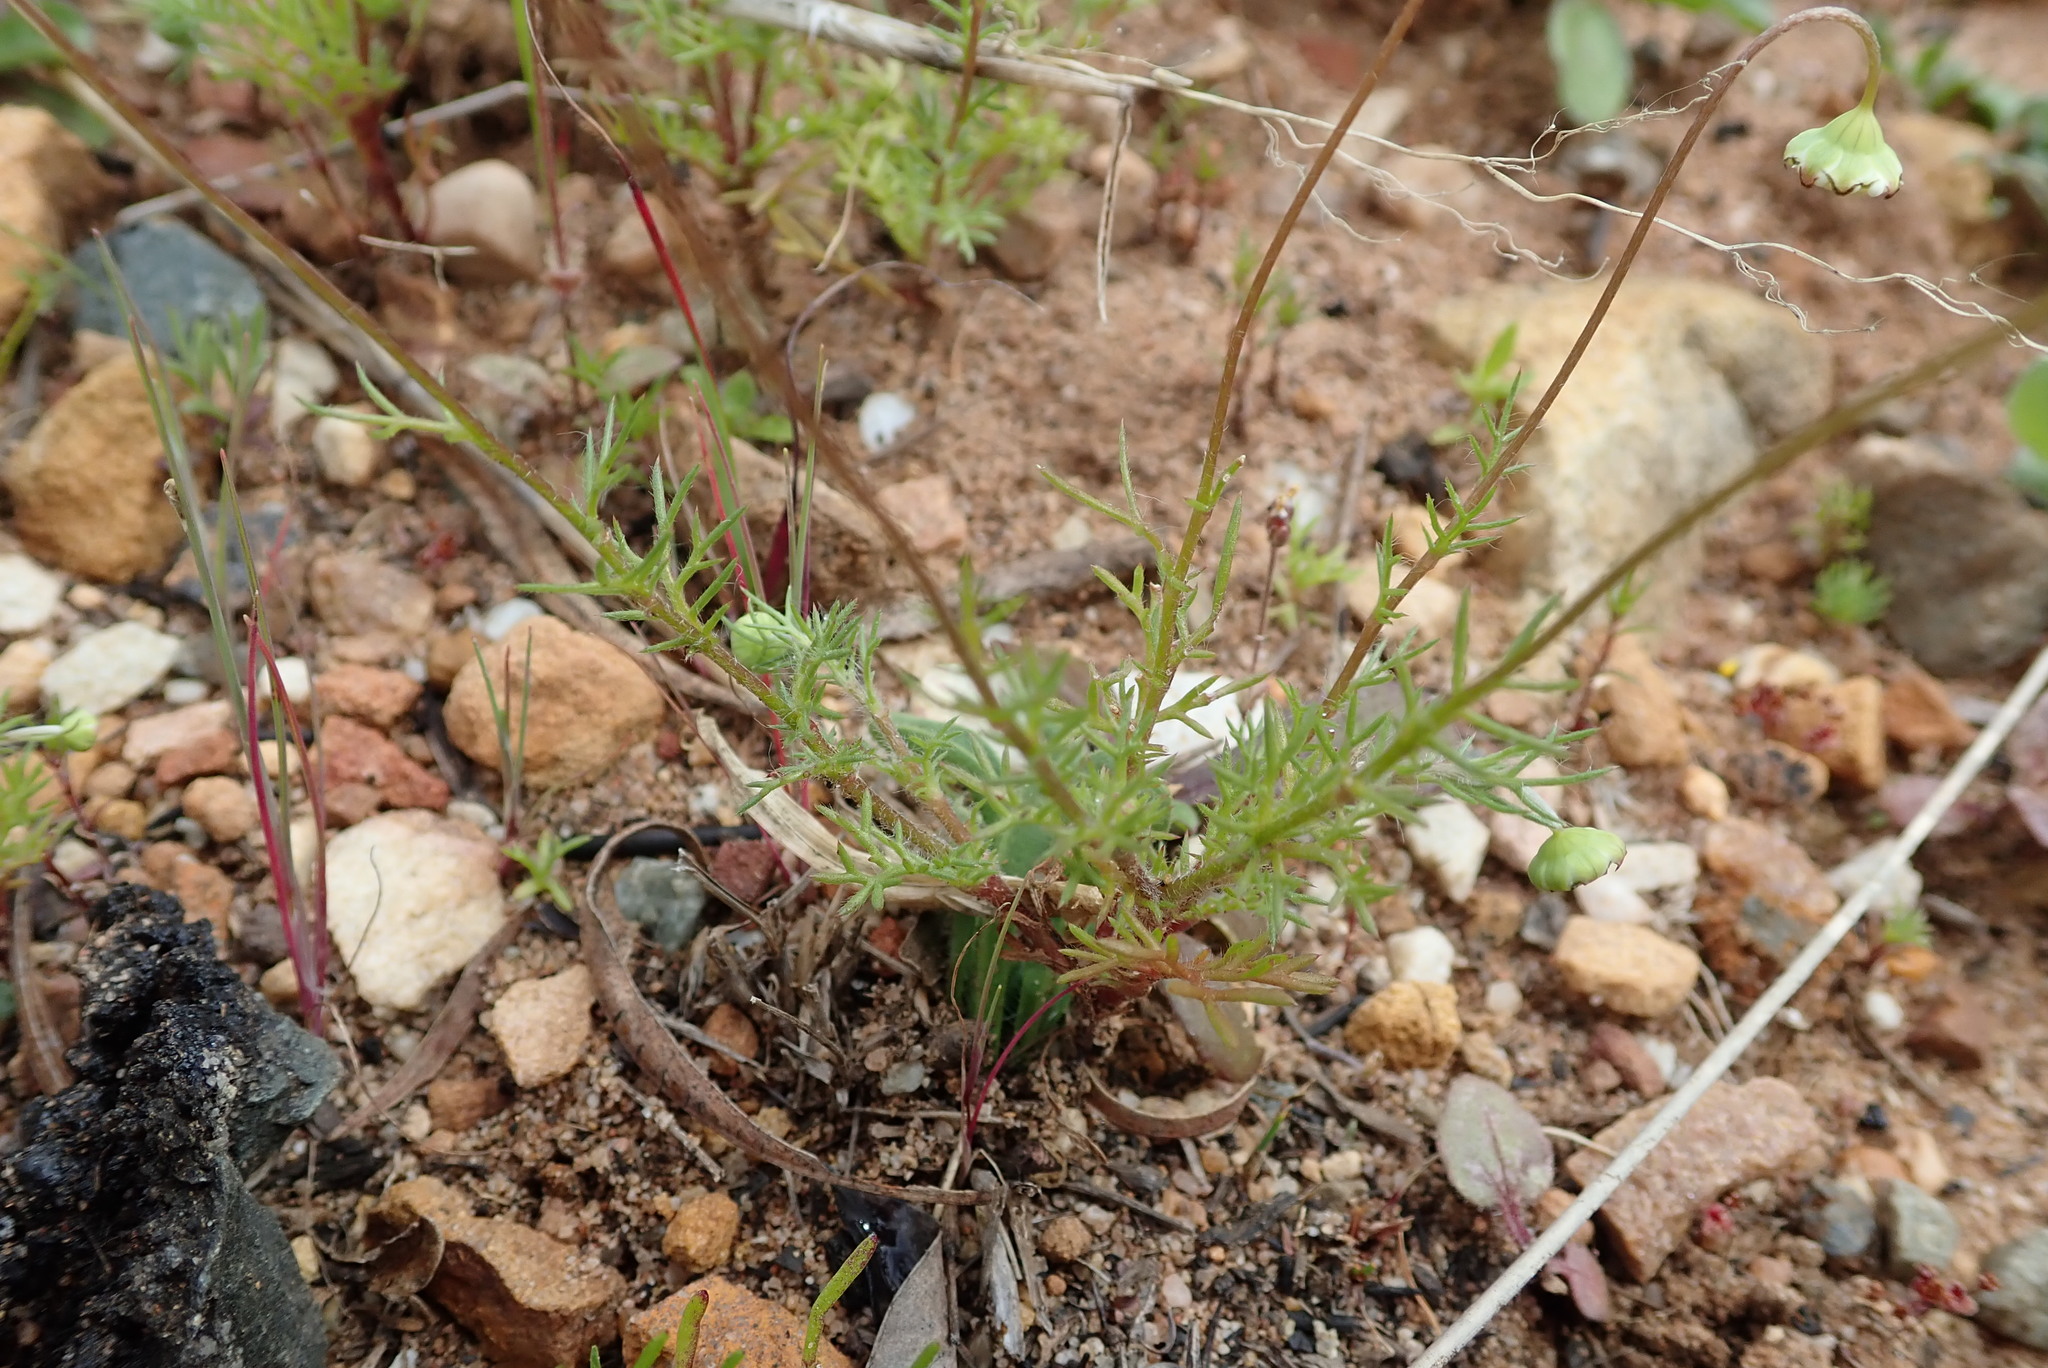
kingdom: Plantae
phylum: Tracheophyta
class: Magnoliopsida
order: Asterales
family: Asteraceae
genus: Cotula
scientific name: Cotula turbinata
